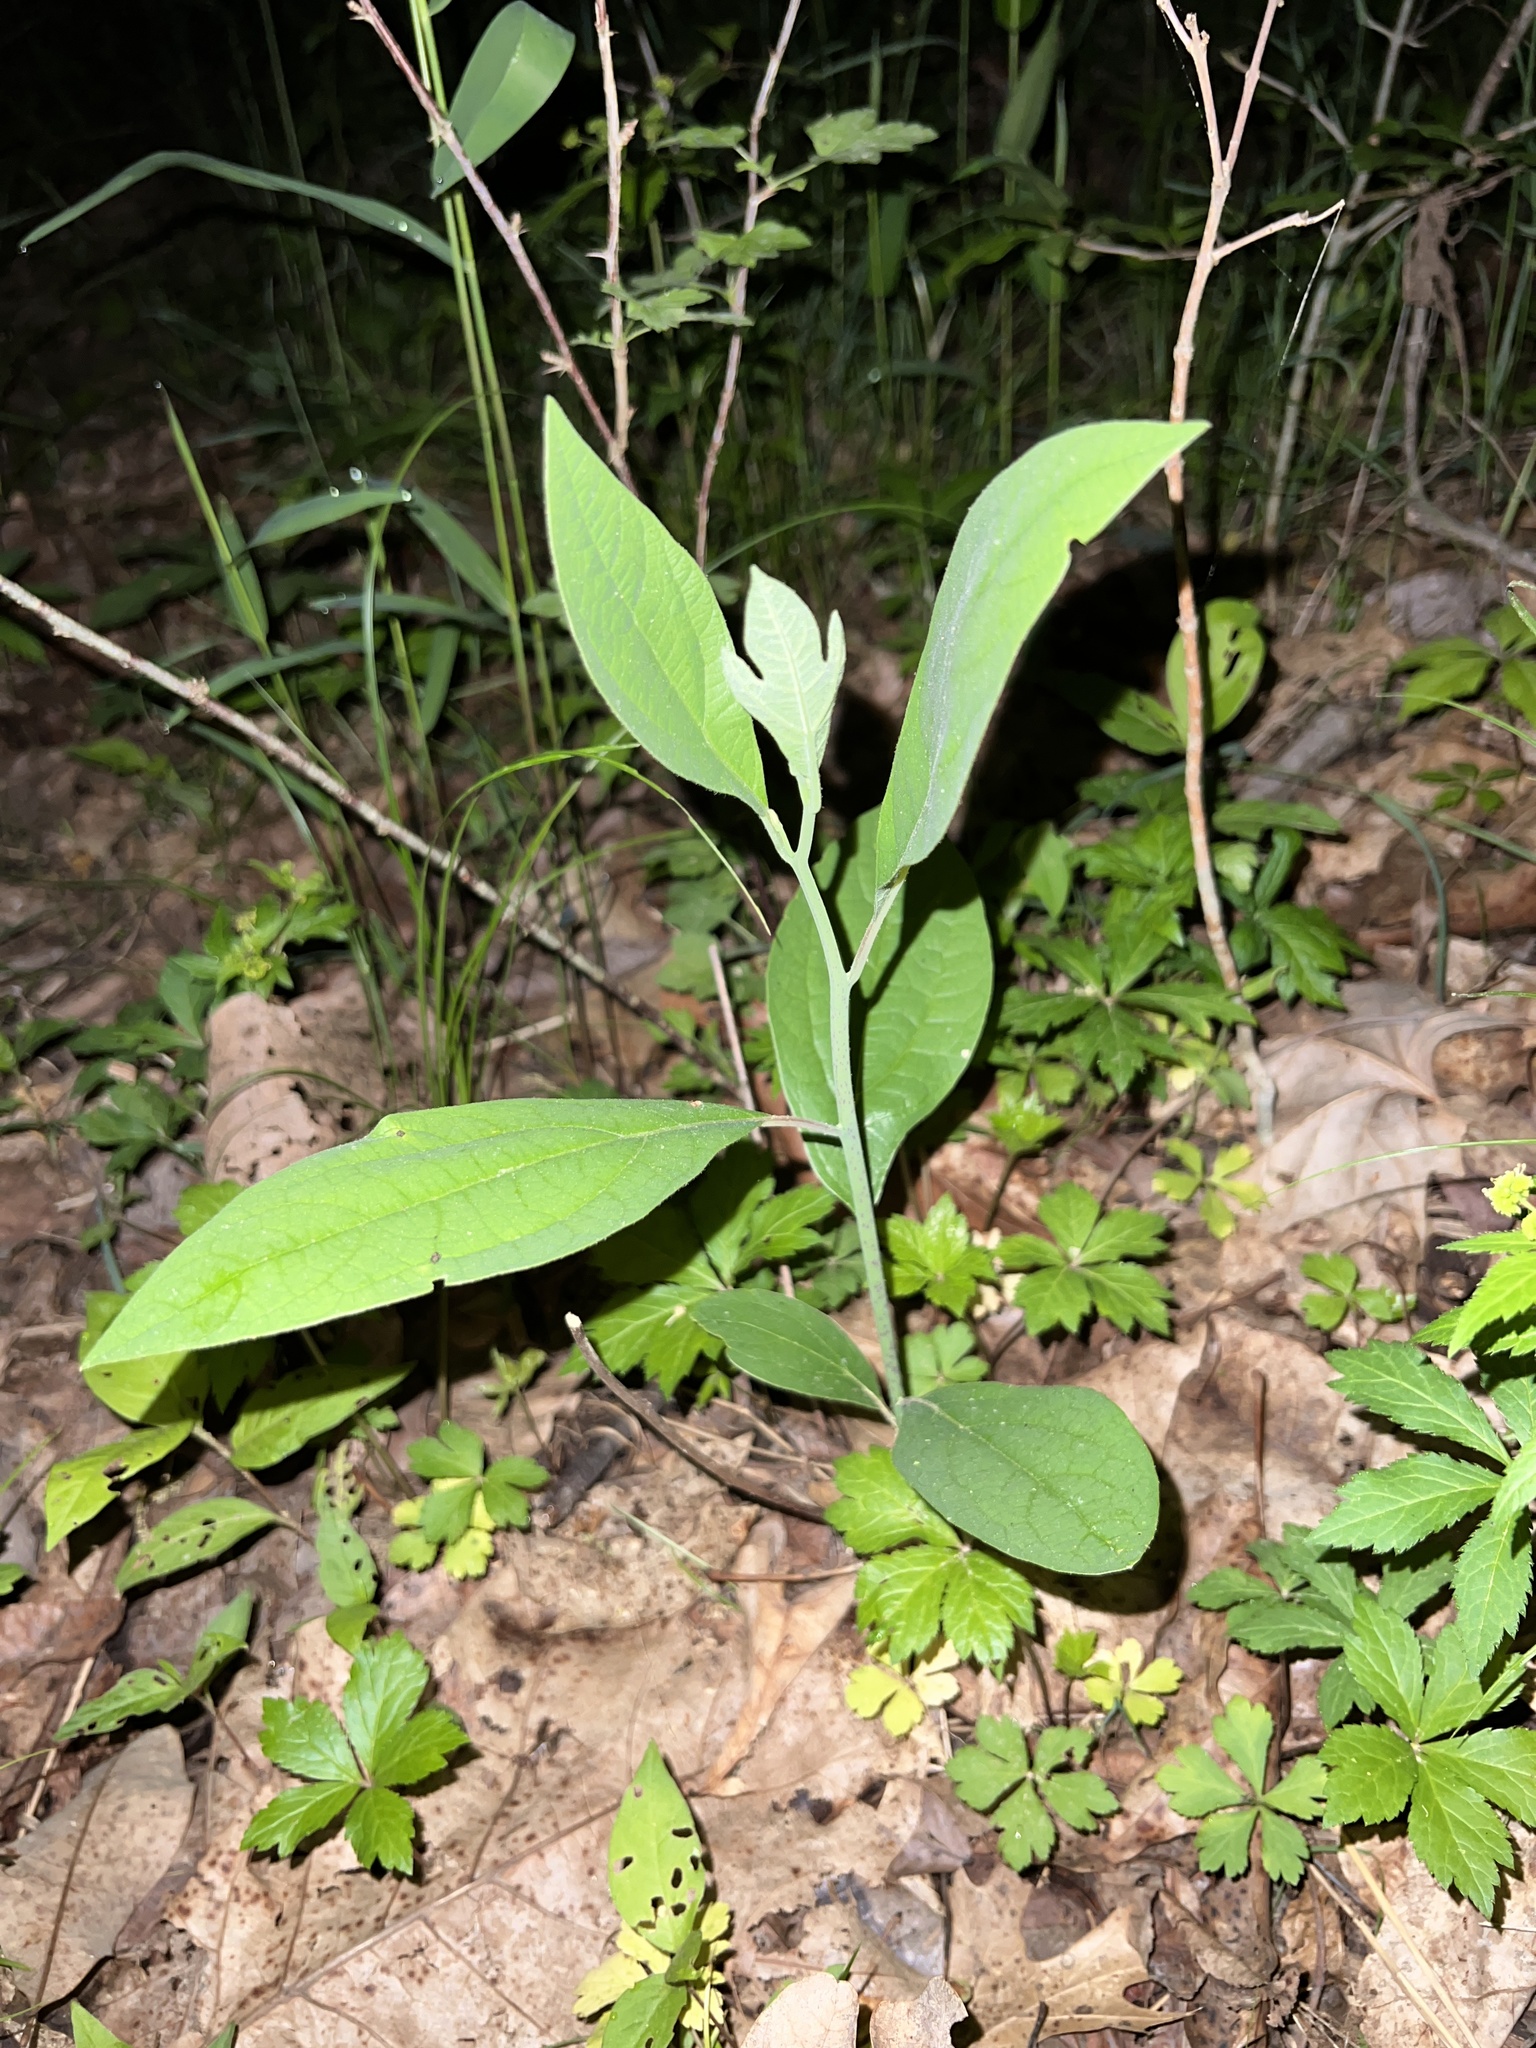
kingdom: Plantae
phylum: Tracheophyta
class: Magnoliopsida
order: Laurales
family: Lauraceae
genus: Sassafras
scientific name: Sassafras albidum
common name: Sassafras
